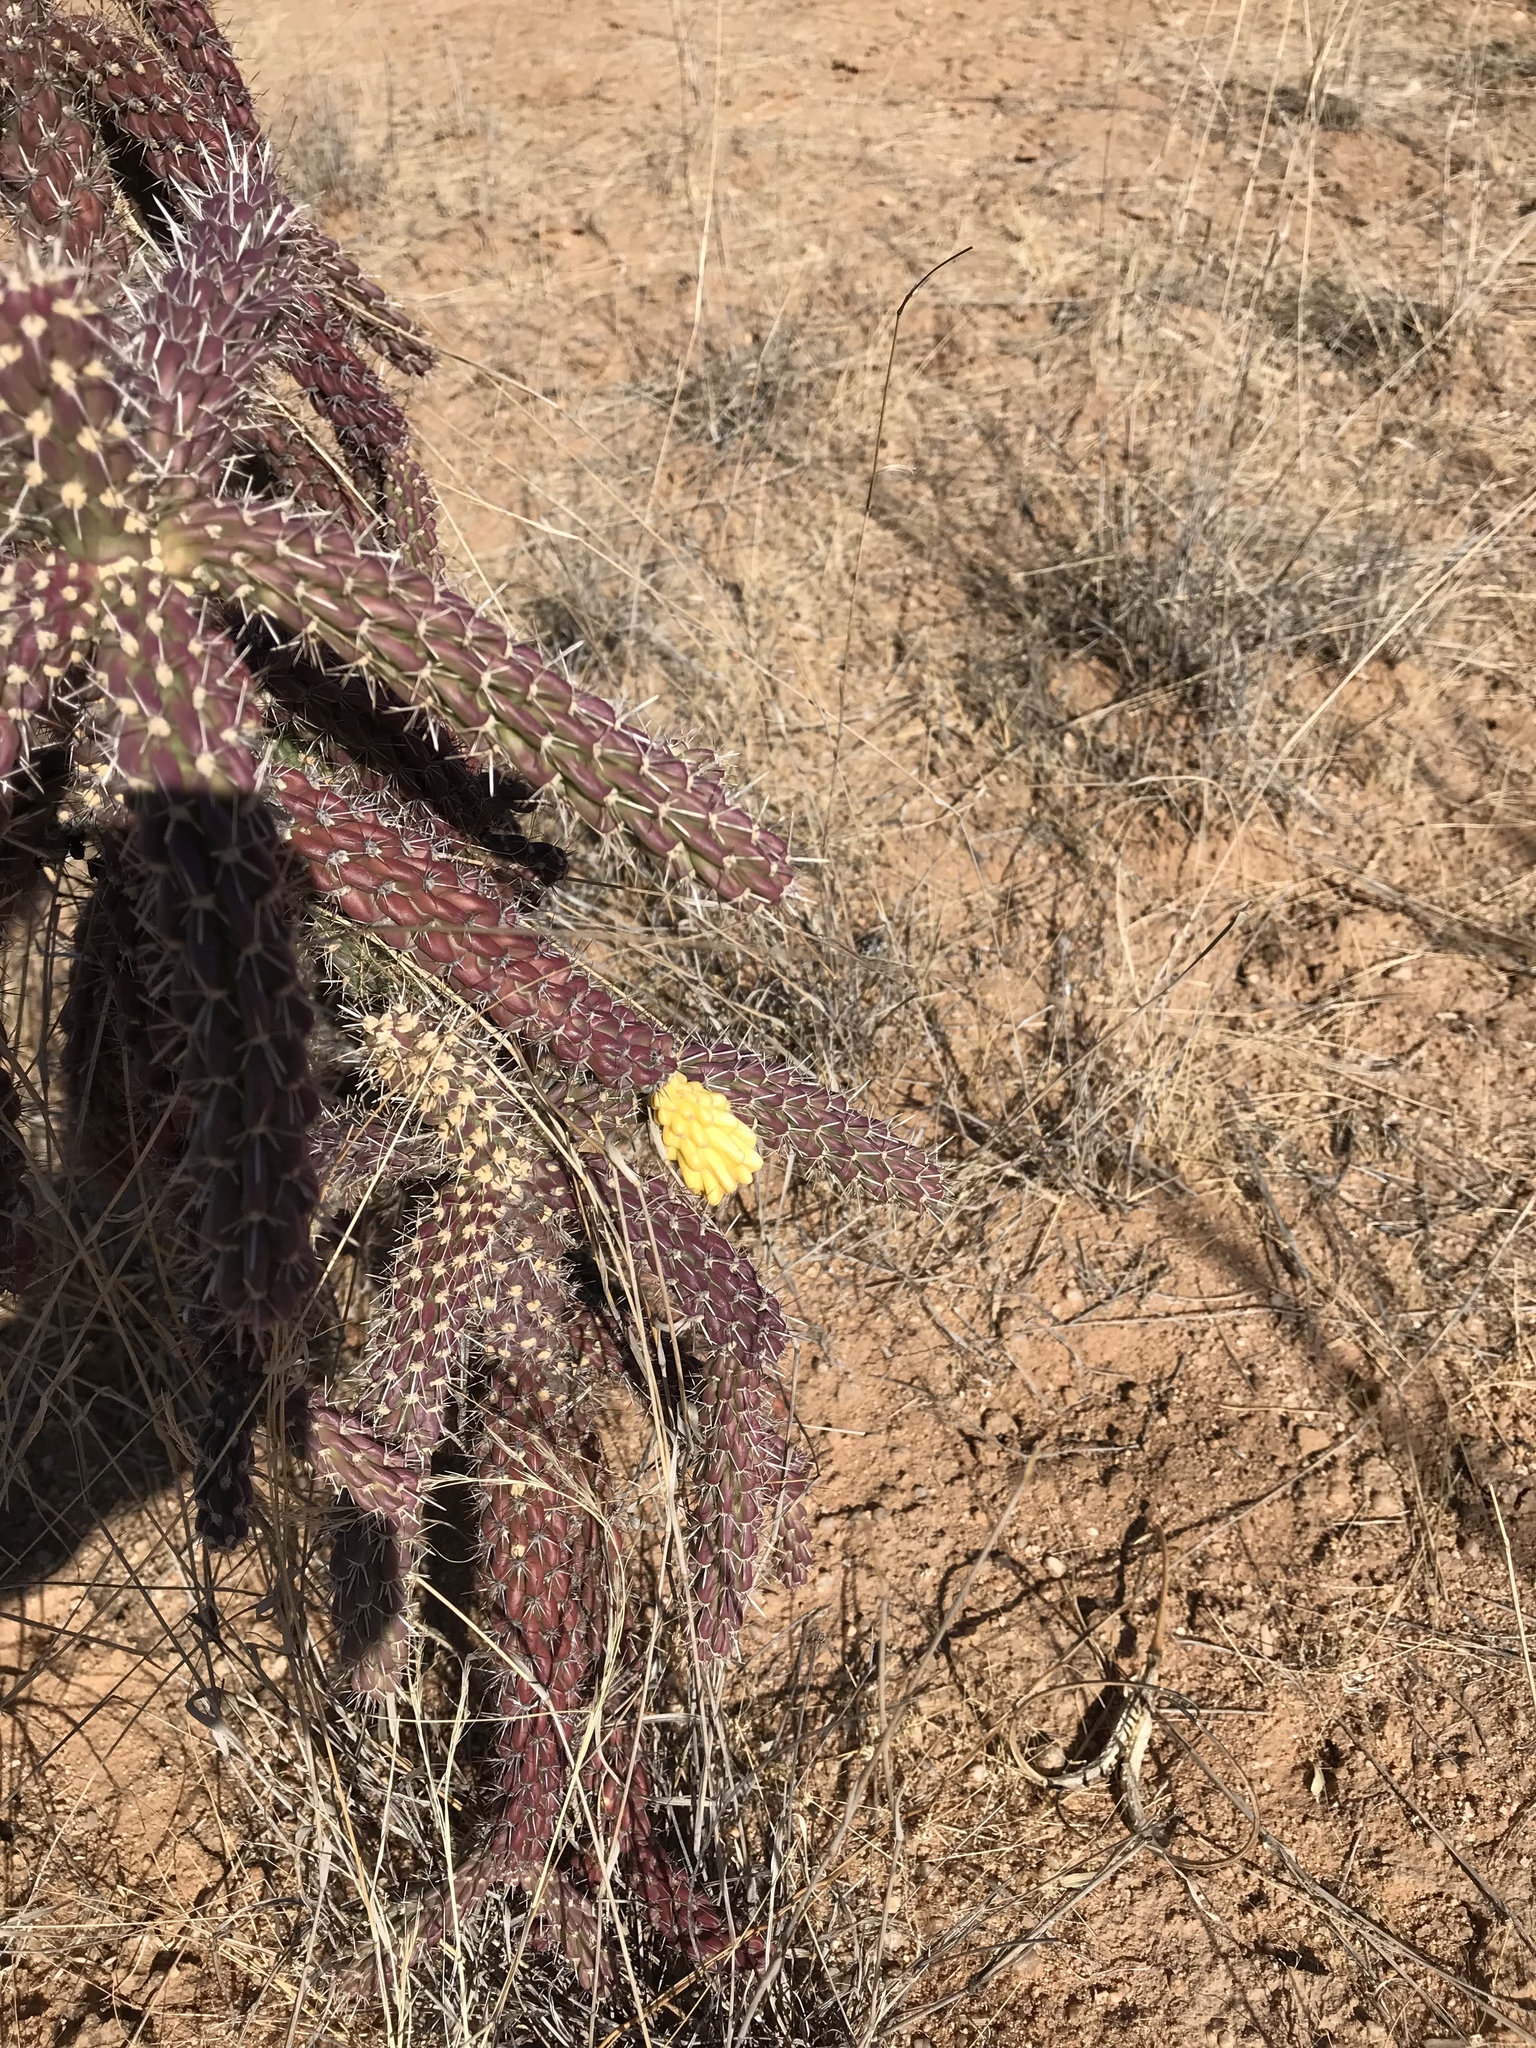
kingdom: Plantae
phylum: Tracheophyta
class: Magnoliopsida
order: Caryophyllales
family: Cactaceae
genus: Cylindropuntia
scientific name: Cylindropuntia imbricata
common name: Candelabrum cactus
